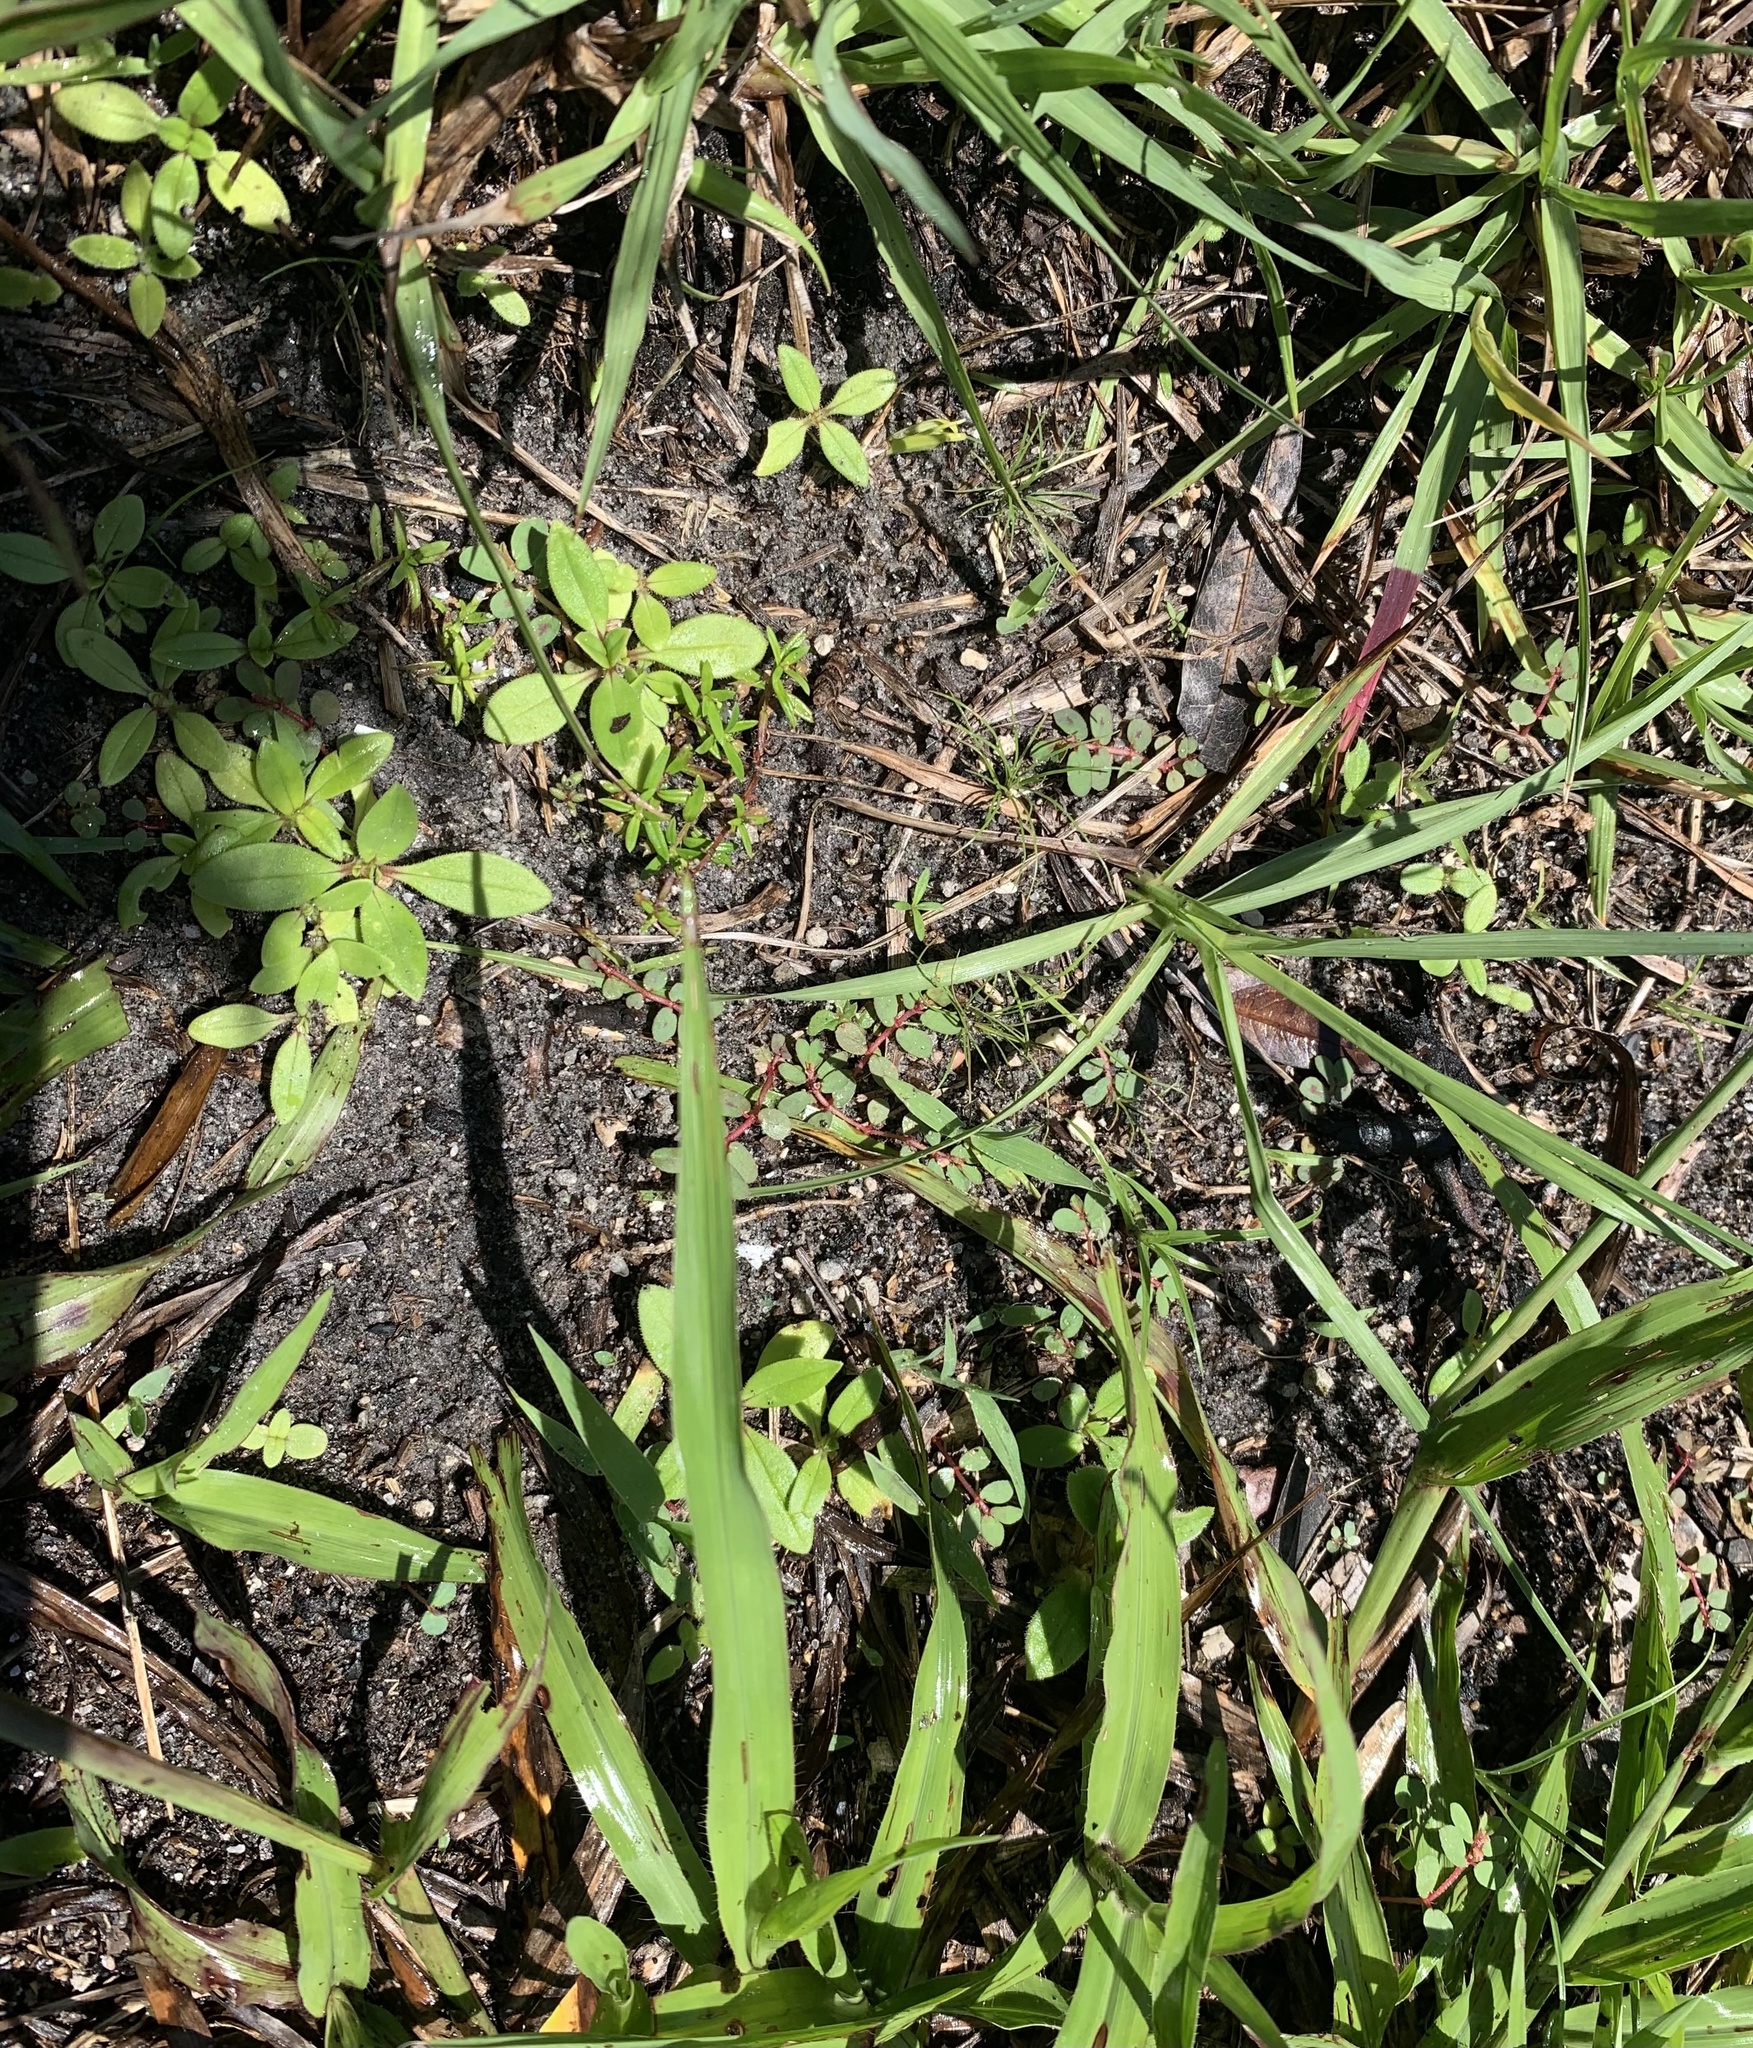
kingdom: Plantae
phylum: Tracheophyta
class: Magnoliopsida
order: Malpighiales
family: Euphorbiaceae
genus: Euphorbia
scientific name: Euphorbia maculata
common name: Spotted spurge
